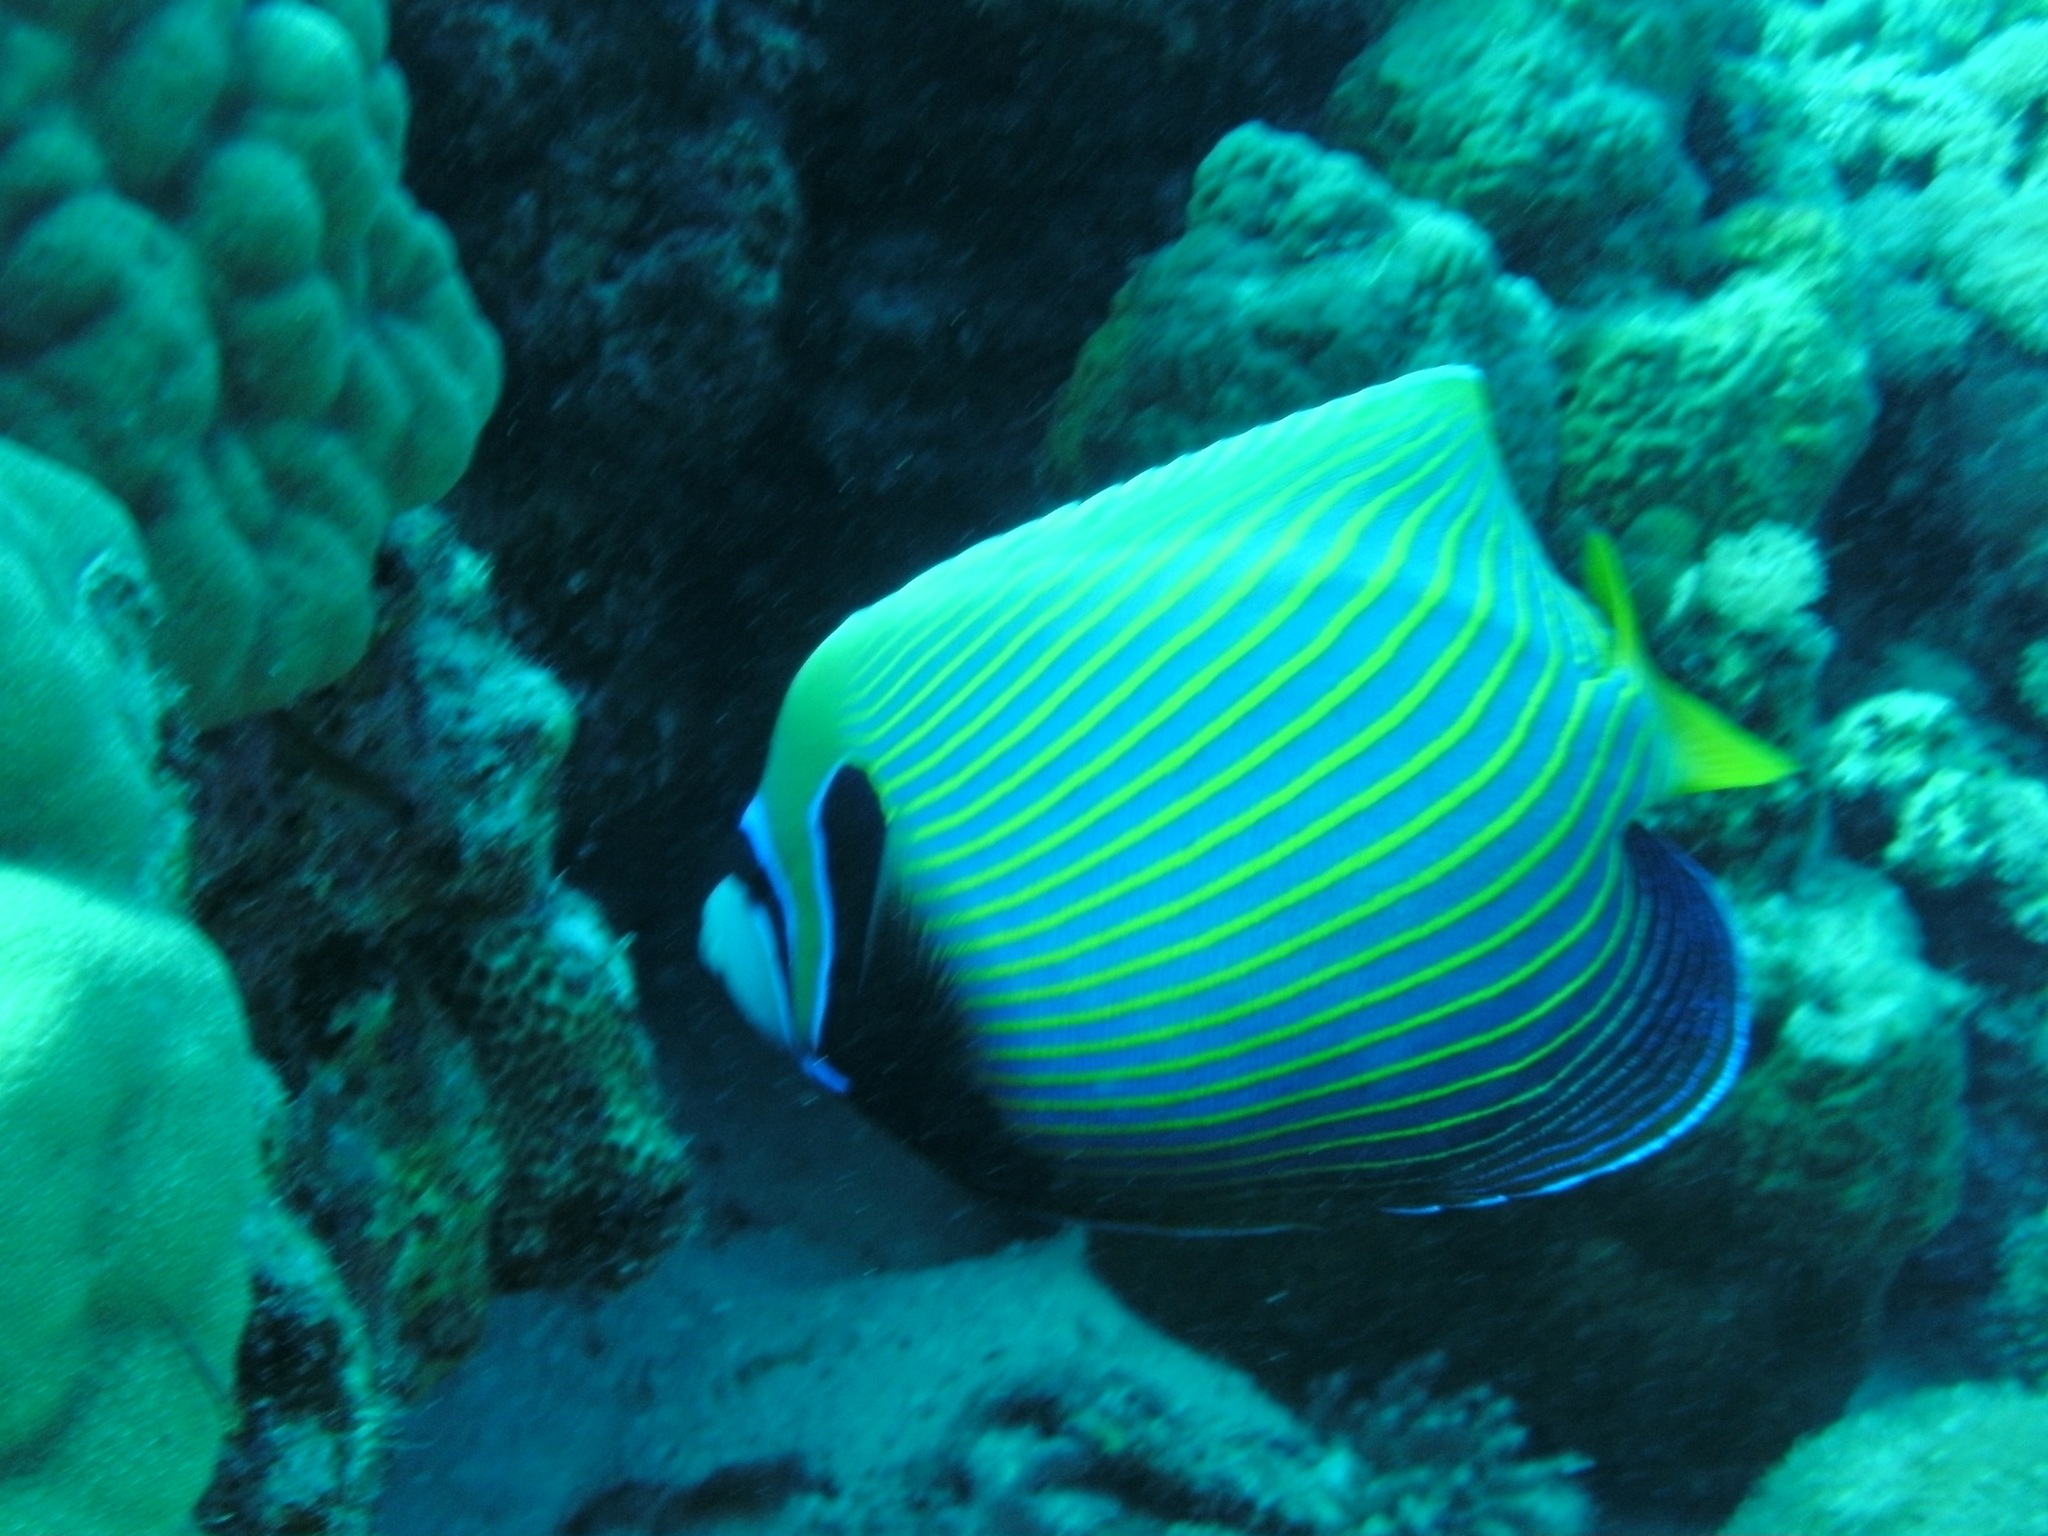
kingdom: Animalia
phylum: Chordata
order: Perciformes
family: Pomacanthidae
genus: Pomacanthus
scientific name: Pomacanthus imperator
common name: Emperor angelfish
